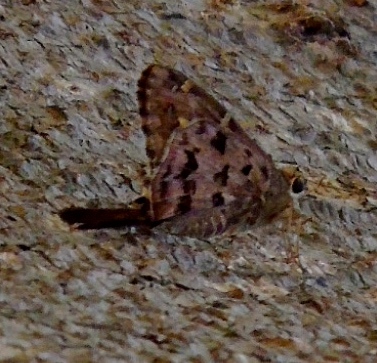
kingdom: Animalia
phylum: Arthropoda
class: Insecta
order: Lepidoptera
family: Hesperiidae
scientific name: Hesperiidae
